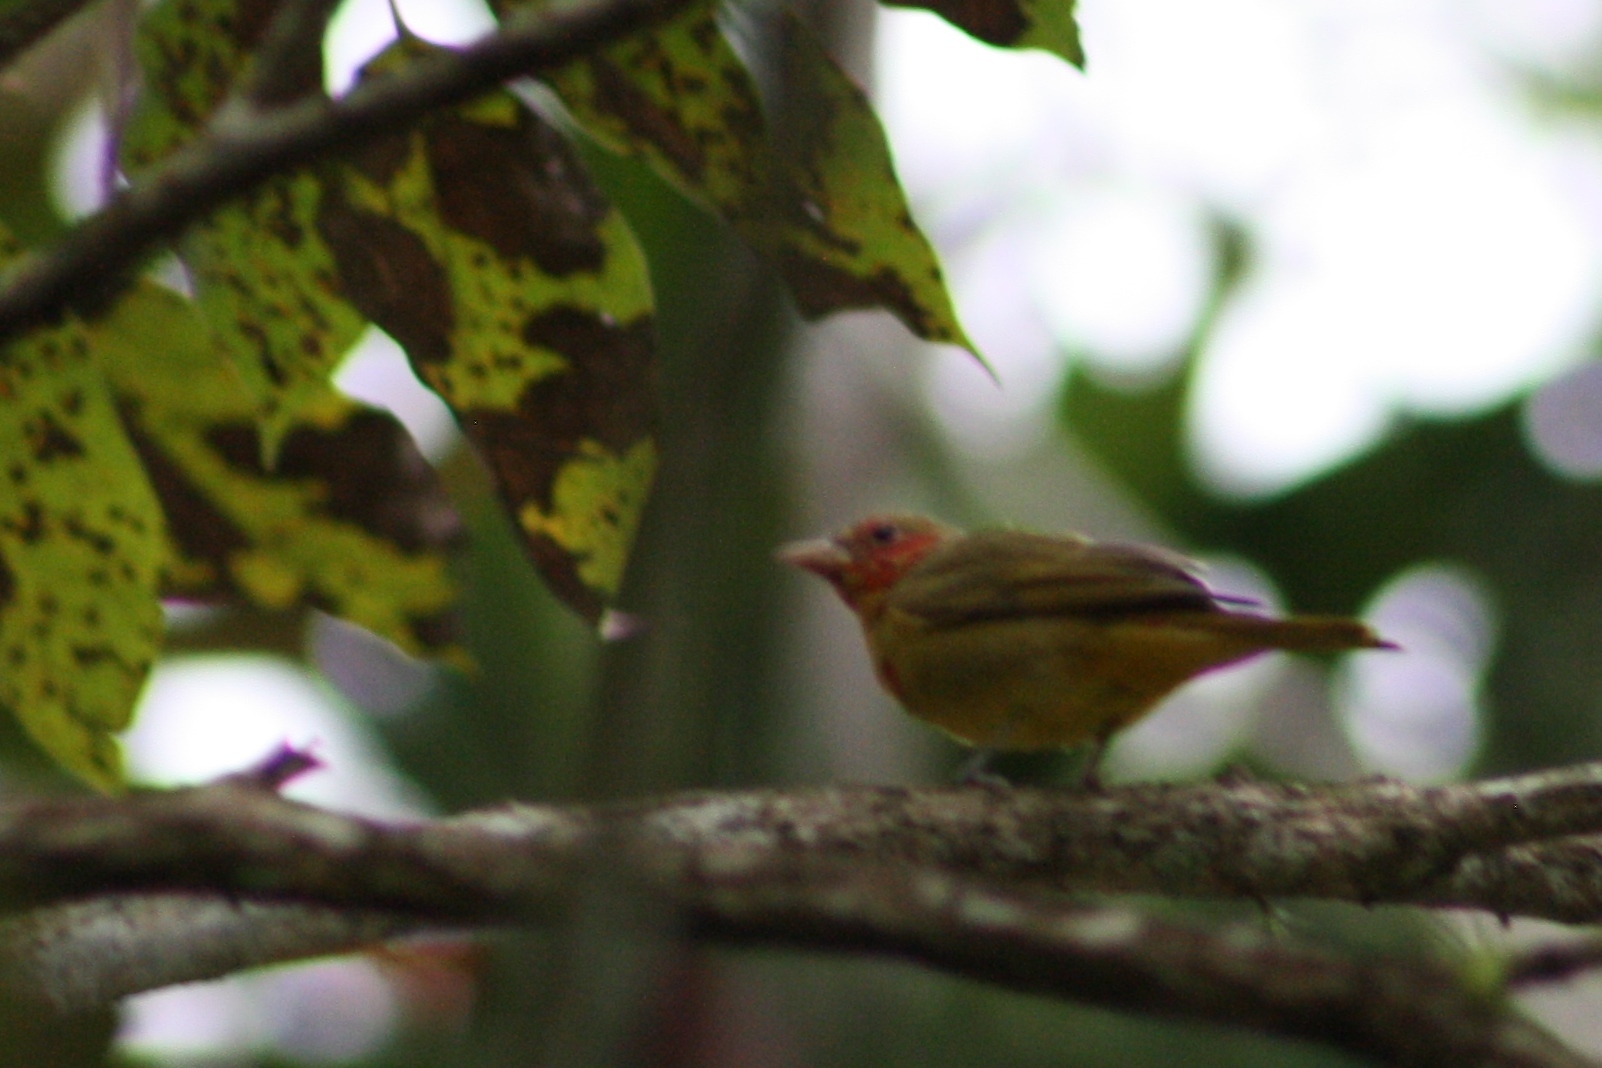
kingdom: Animalia
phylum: Chordata
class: Aves
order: Passeriformes
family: Cardinalidae
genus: Piranga
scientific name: Piranga rubra
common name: Summer tanager
